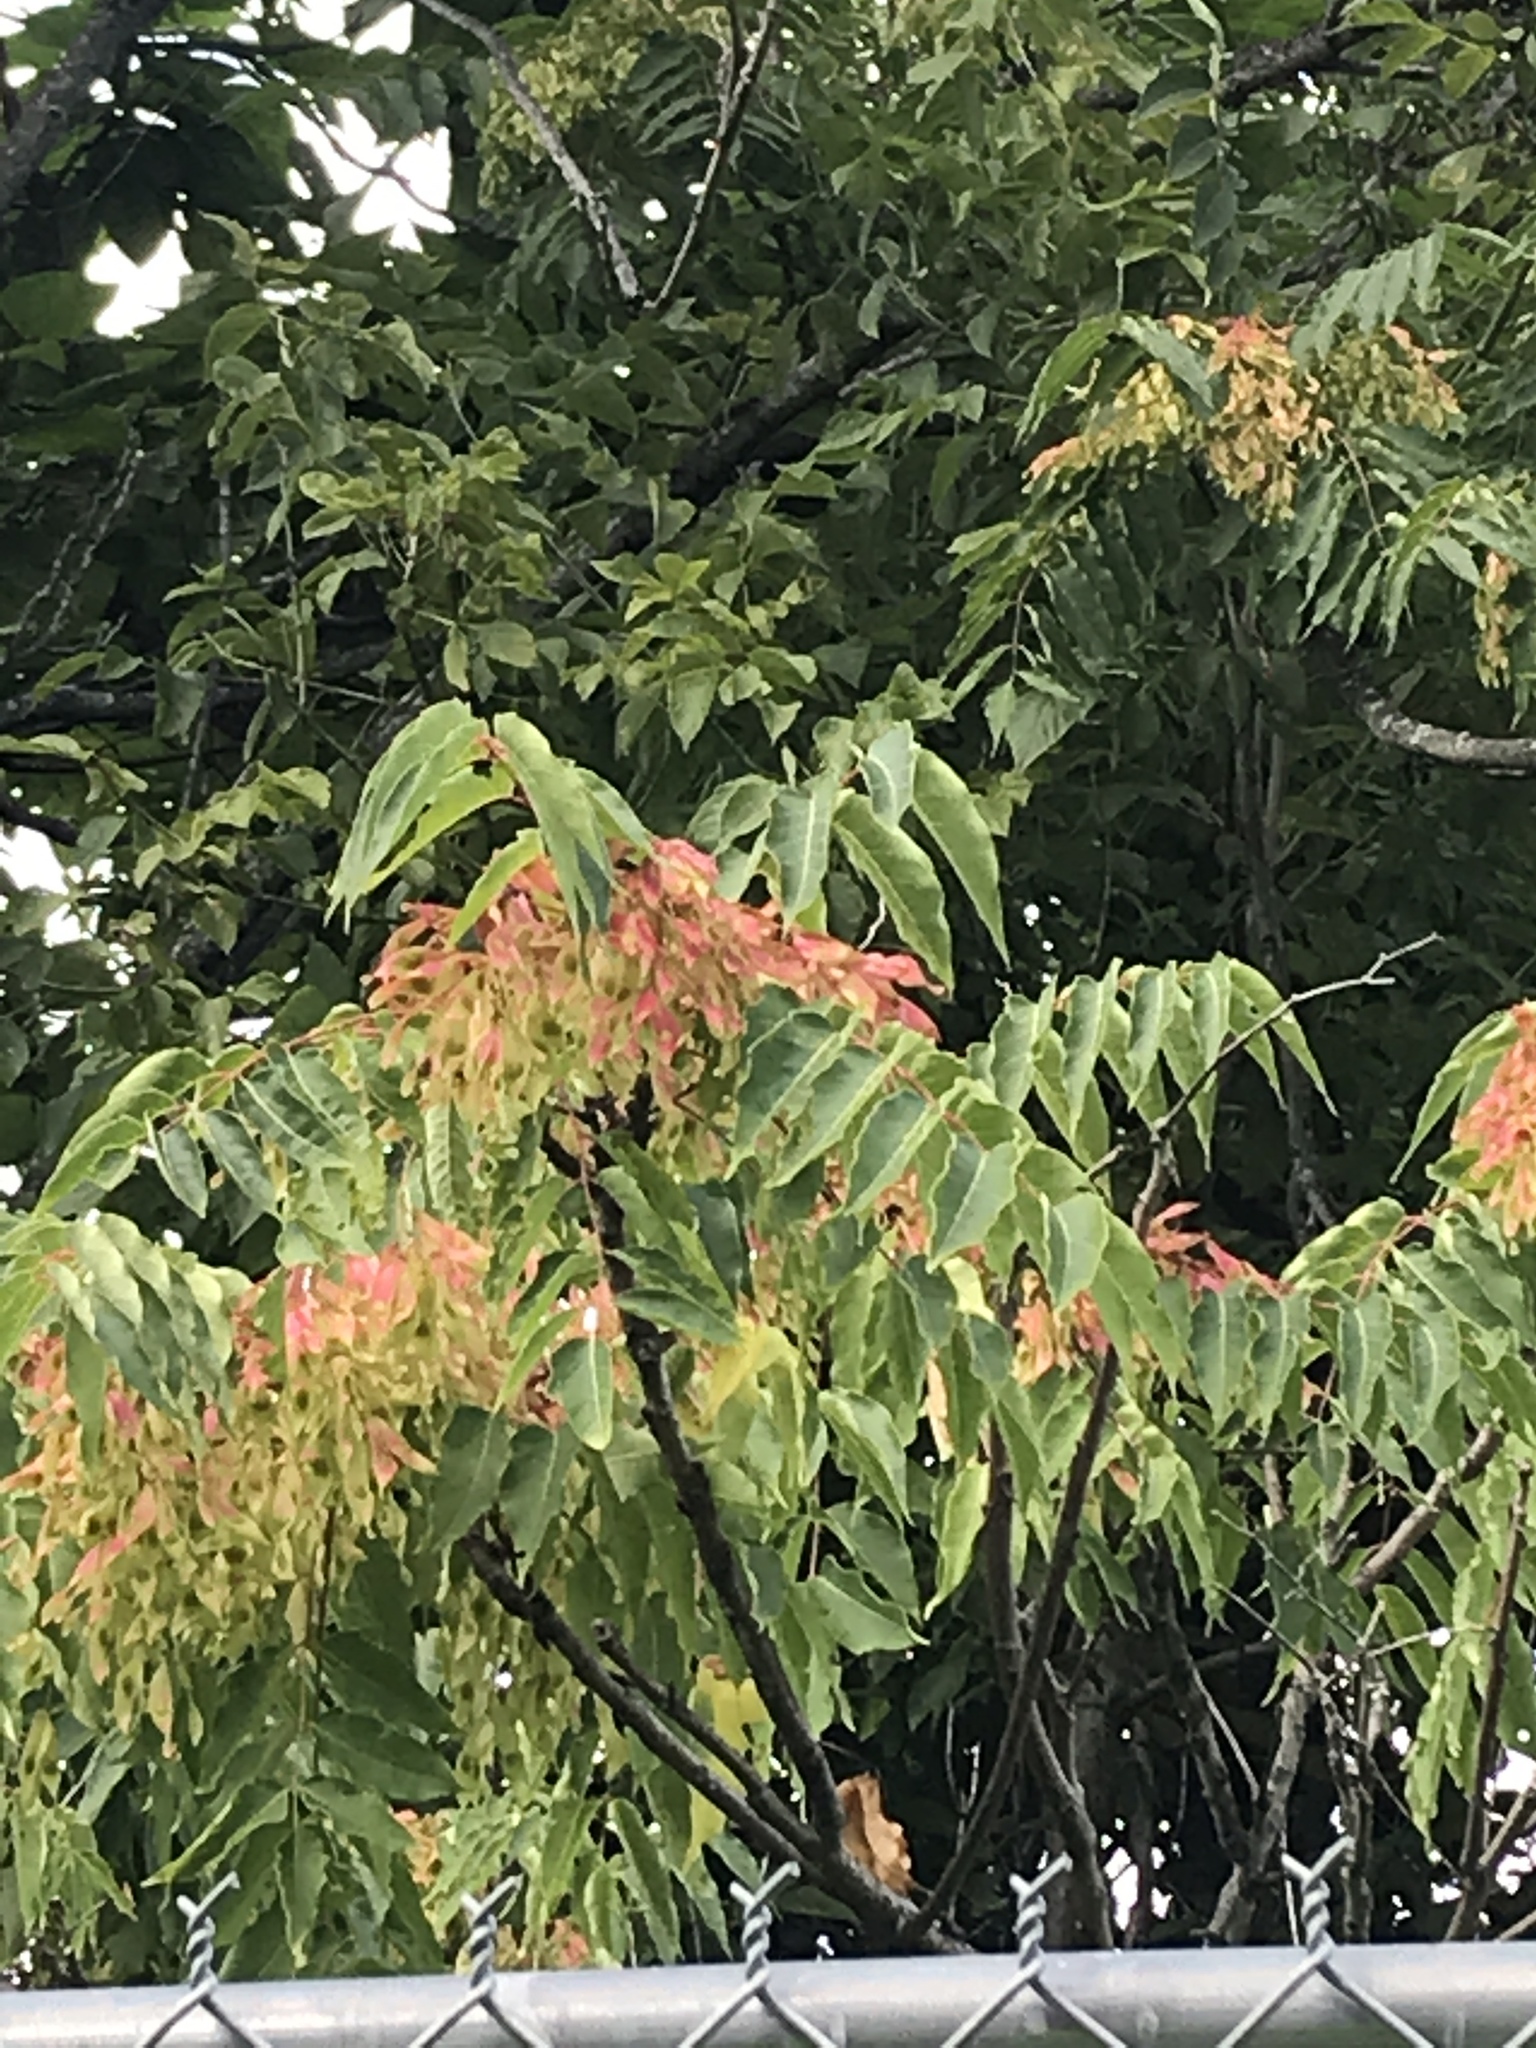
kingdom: Plantae
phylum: Tracheophyta
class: Magnoliopsida
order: Sapindales
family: Simaroubaceae
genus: Ailanthus
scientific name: Ailanthus altissima
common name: Tree-of-heaven
